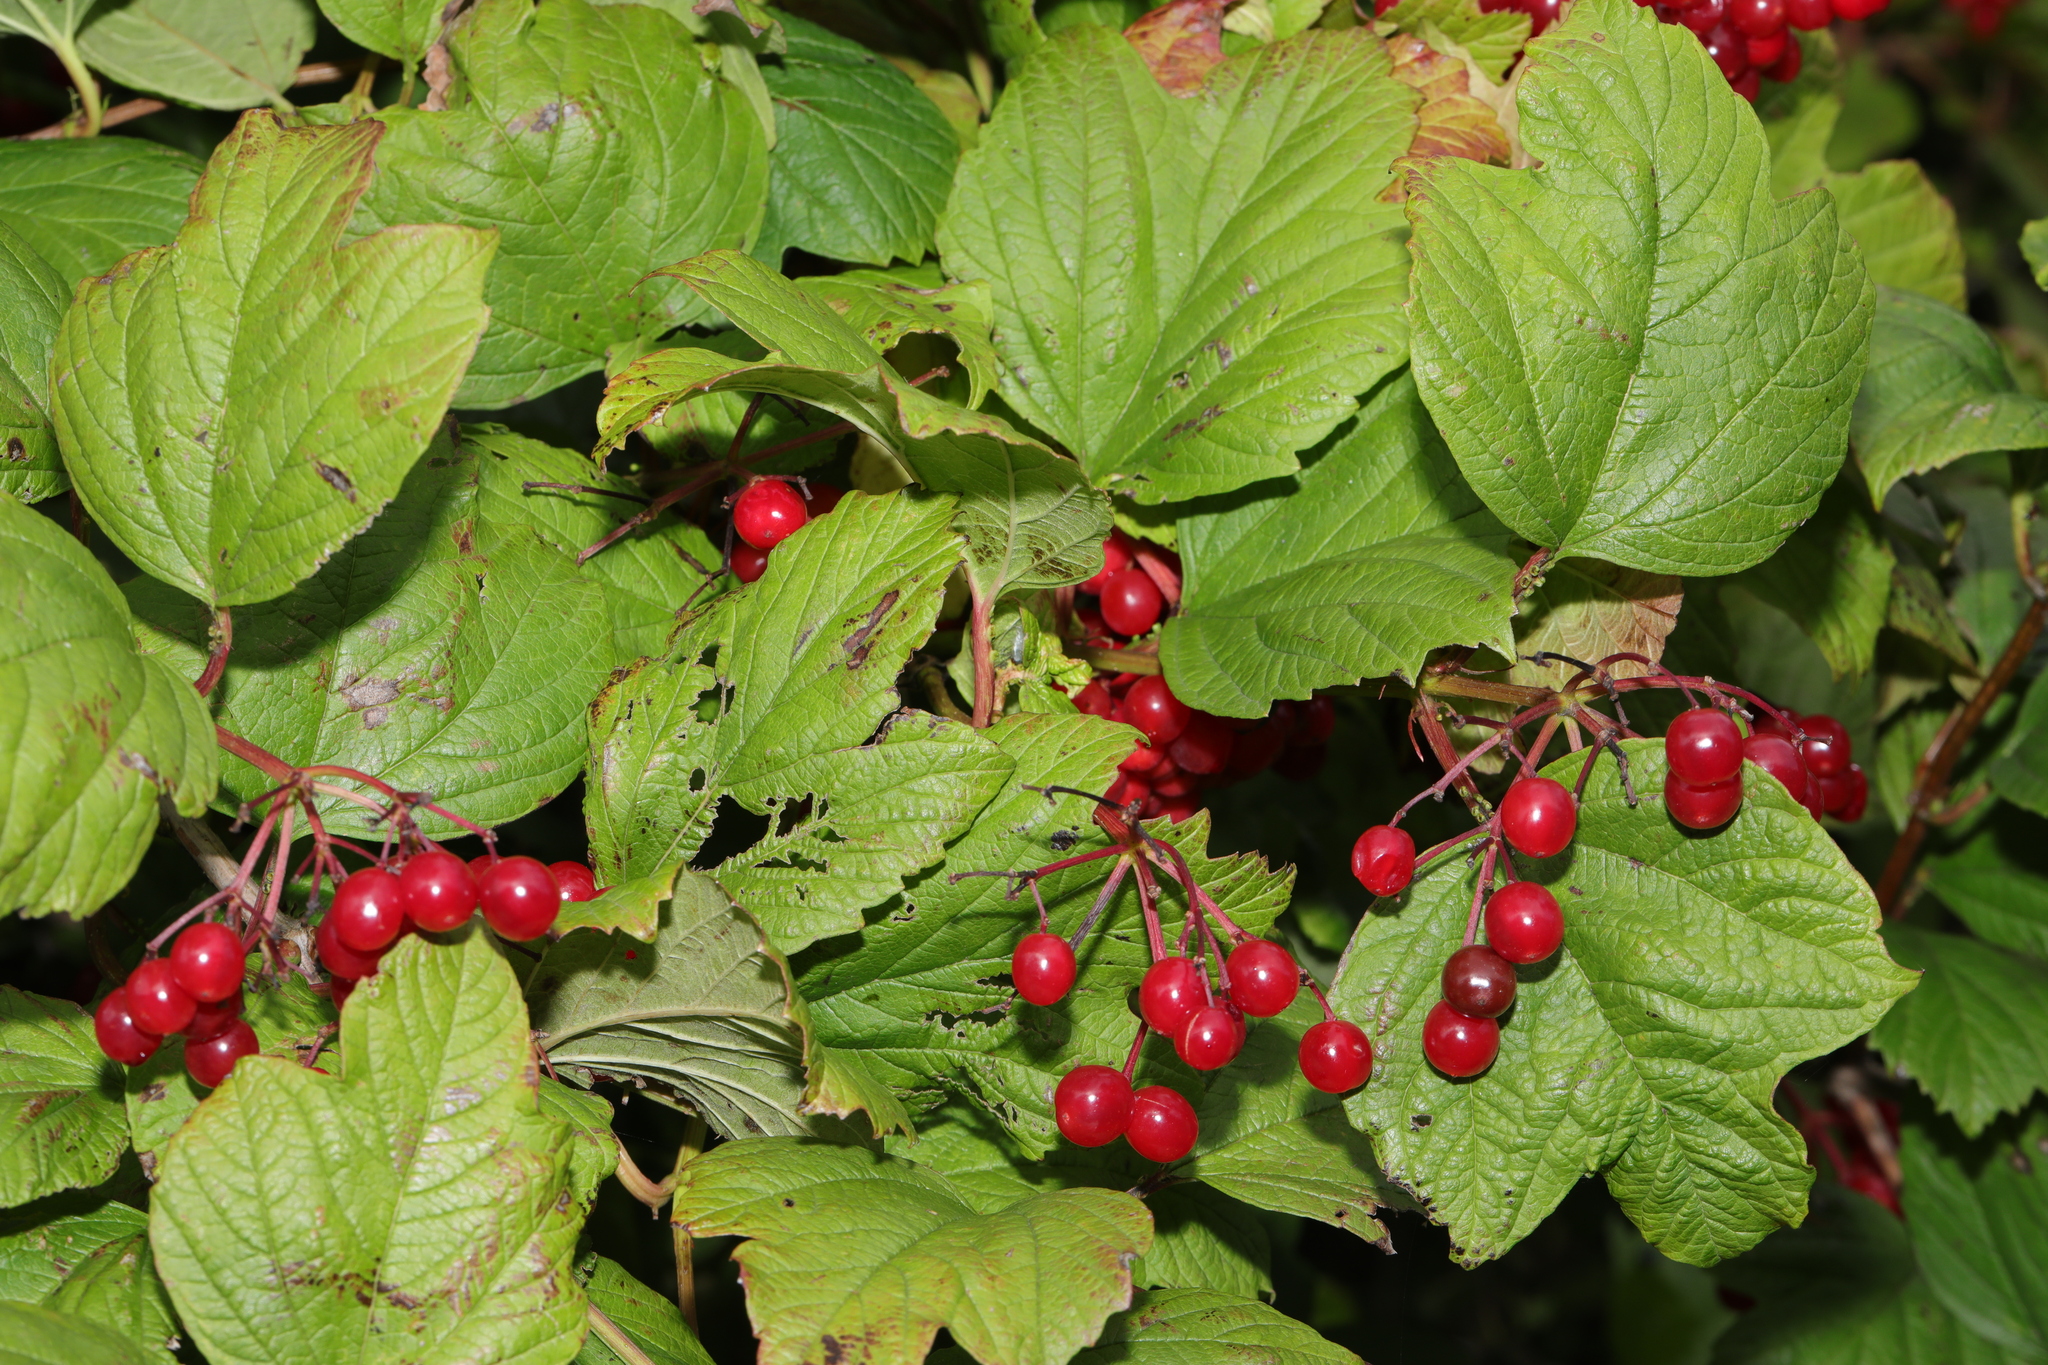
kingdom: Plantae
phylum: Tracheophyta
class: Magnoliopsida
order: Dipsacales
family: Viburnaceae
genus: Viburnum
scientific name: Viburnum opulus
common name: Guelder-rose
